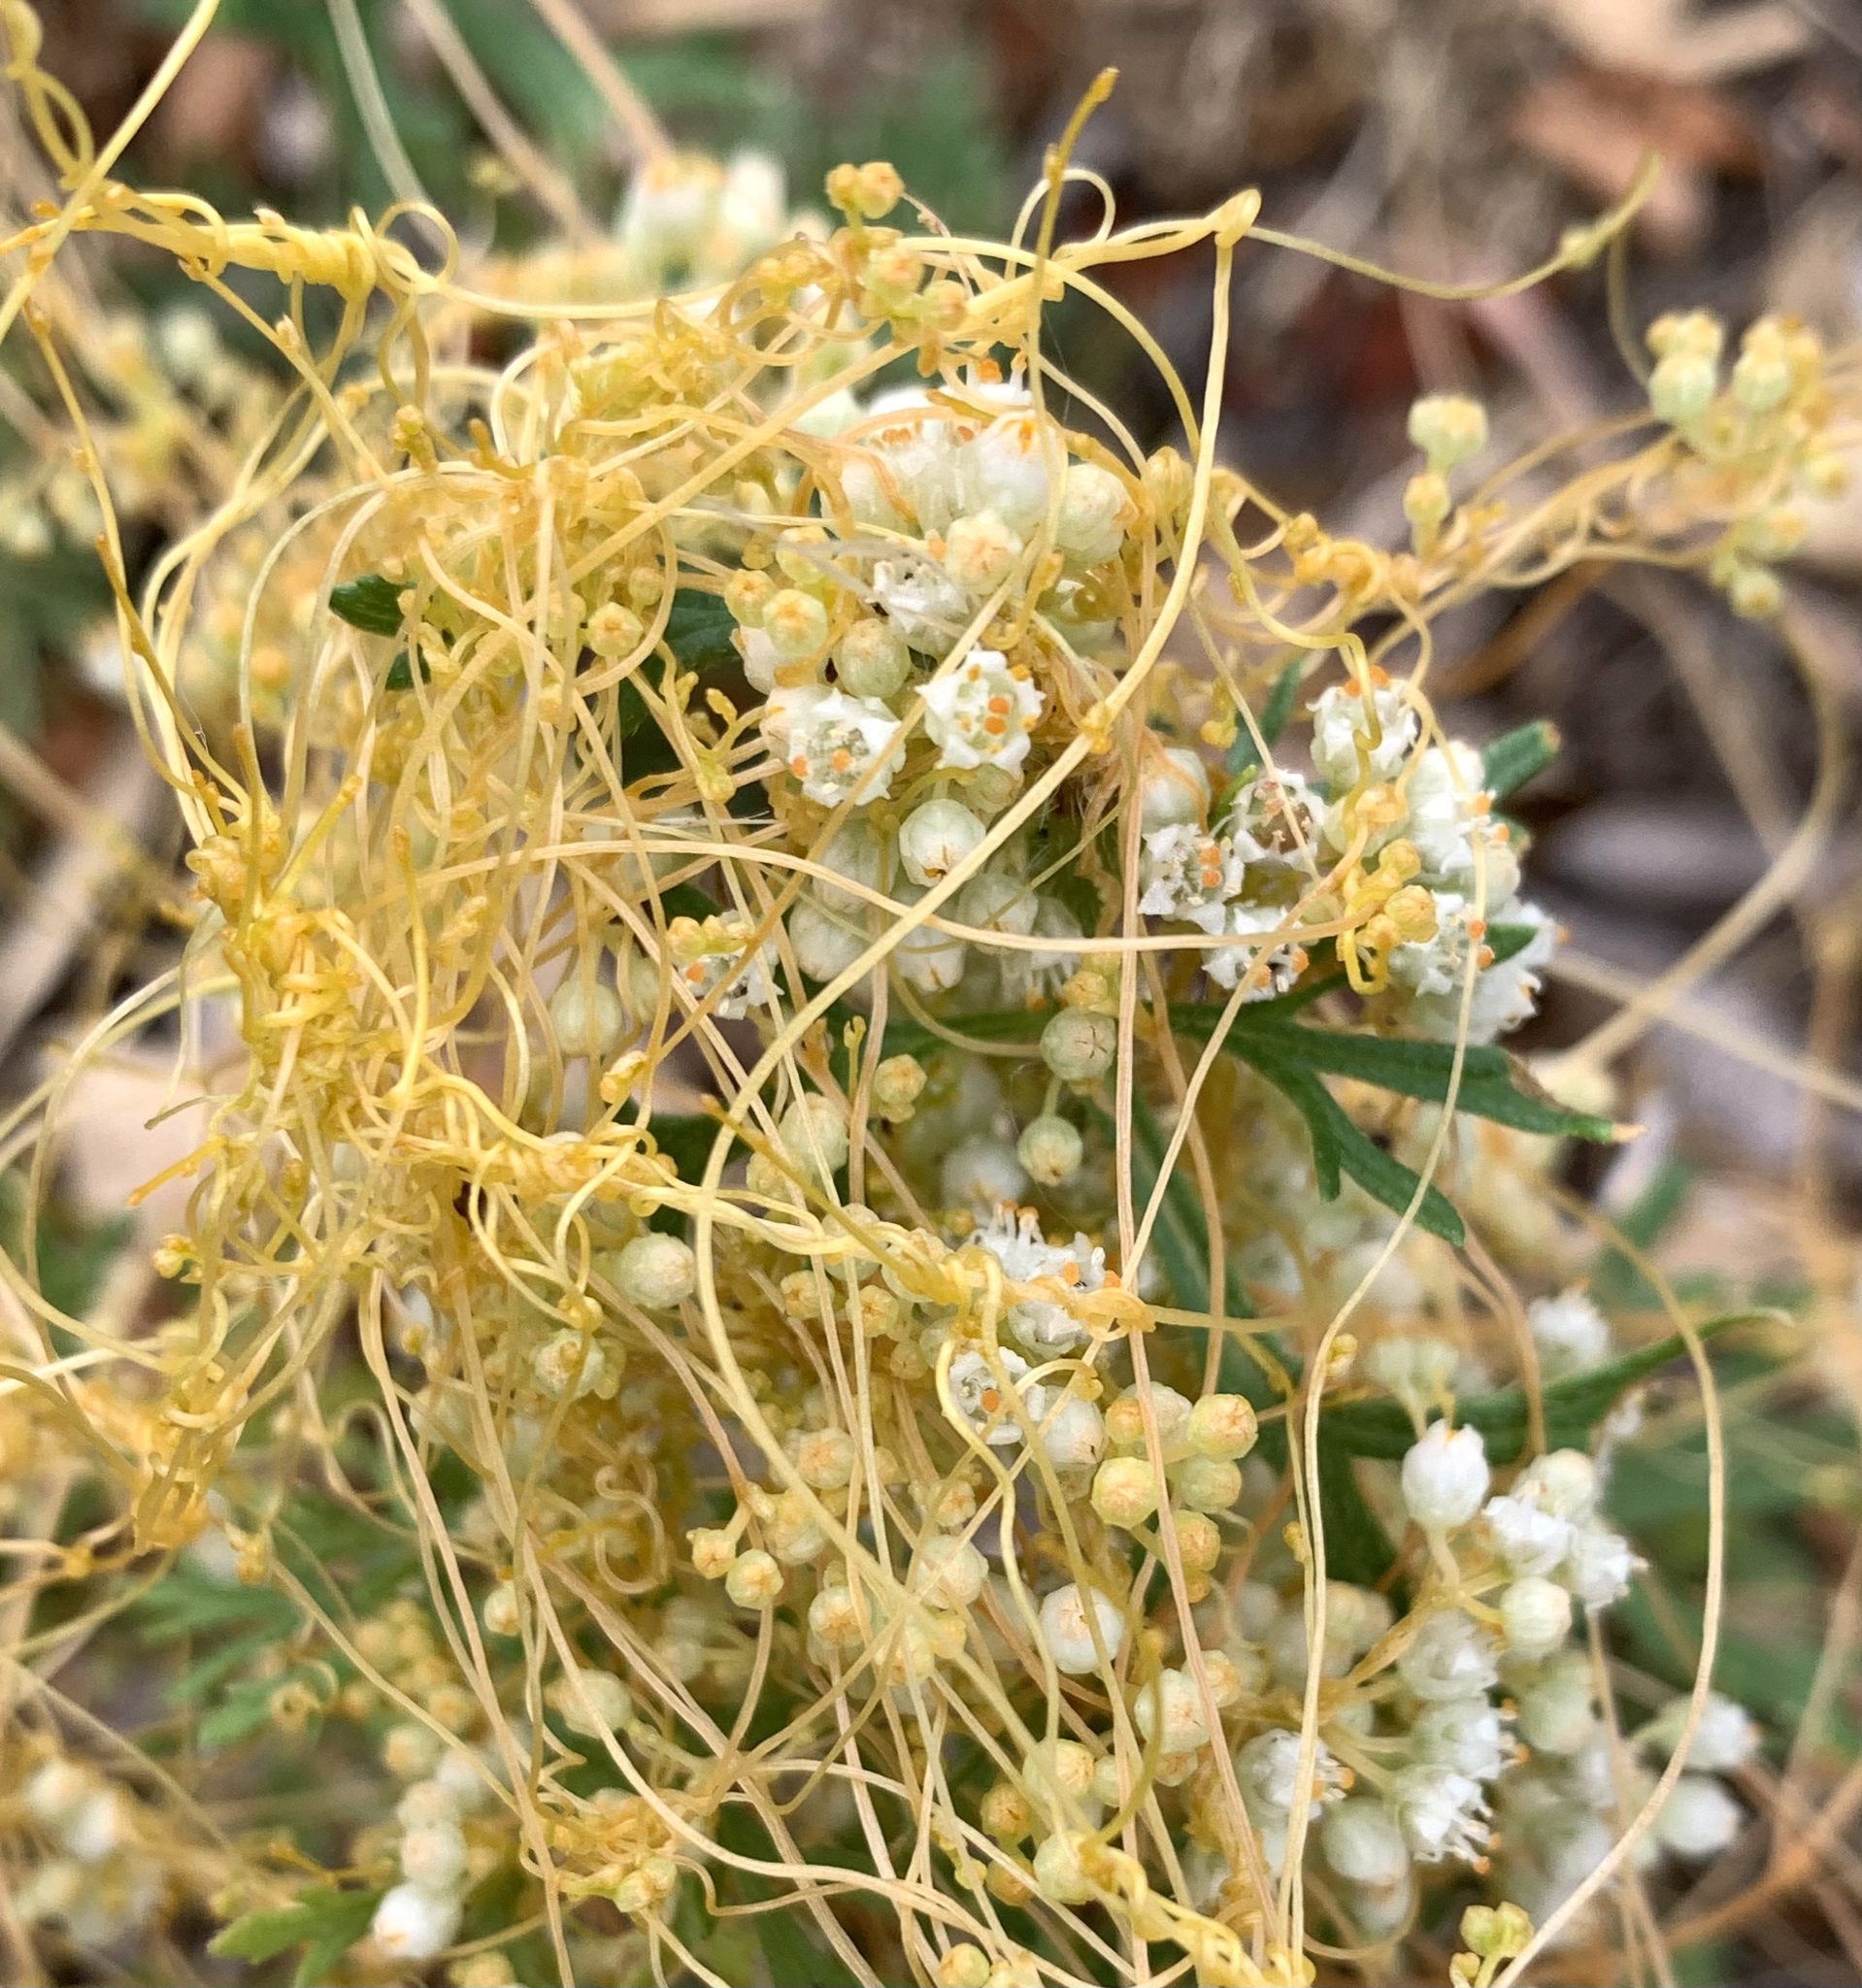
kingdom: Plantae
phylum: Tracheophyta
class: Magnoliopsida
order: Solanales
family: Convolvulaceae
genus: Cuscuta
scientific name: Cuscuta campestris
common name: Yellow dodder
